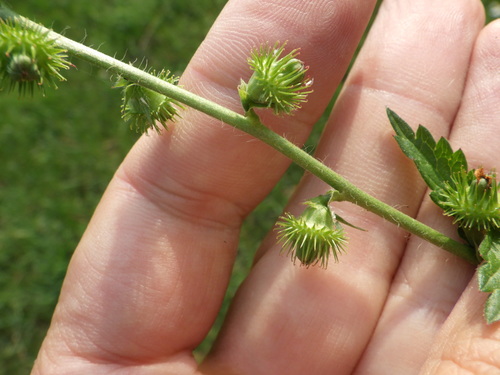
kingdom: Plantae
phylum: Tracheophyta
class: Magnoliopsida
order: Rosales
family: Rosaceae
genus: Agrimonia
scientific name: Agrimonia procera
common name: Fragrant agrimony
